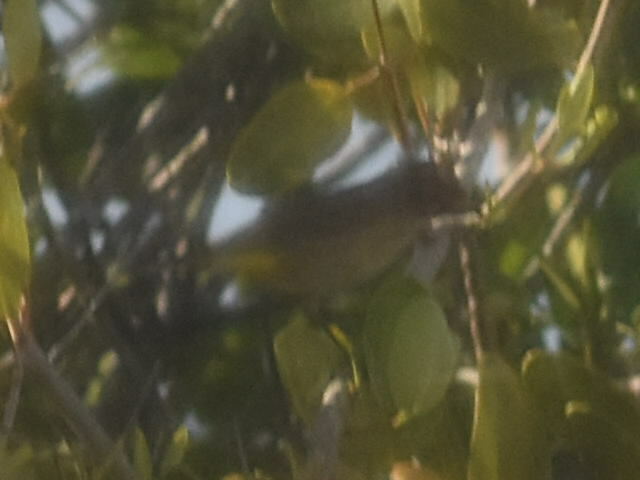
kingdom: Animalia
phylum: Chordata
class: Aves
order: Passeriformes
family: Parulidae
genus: Setophaga
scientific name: Setophaga palmarum
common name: Palm warbler
